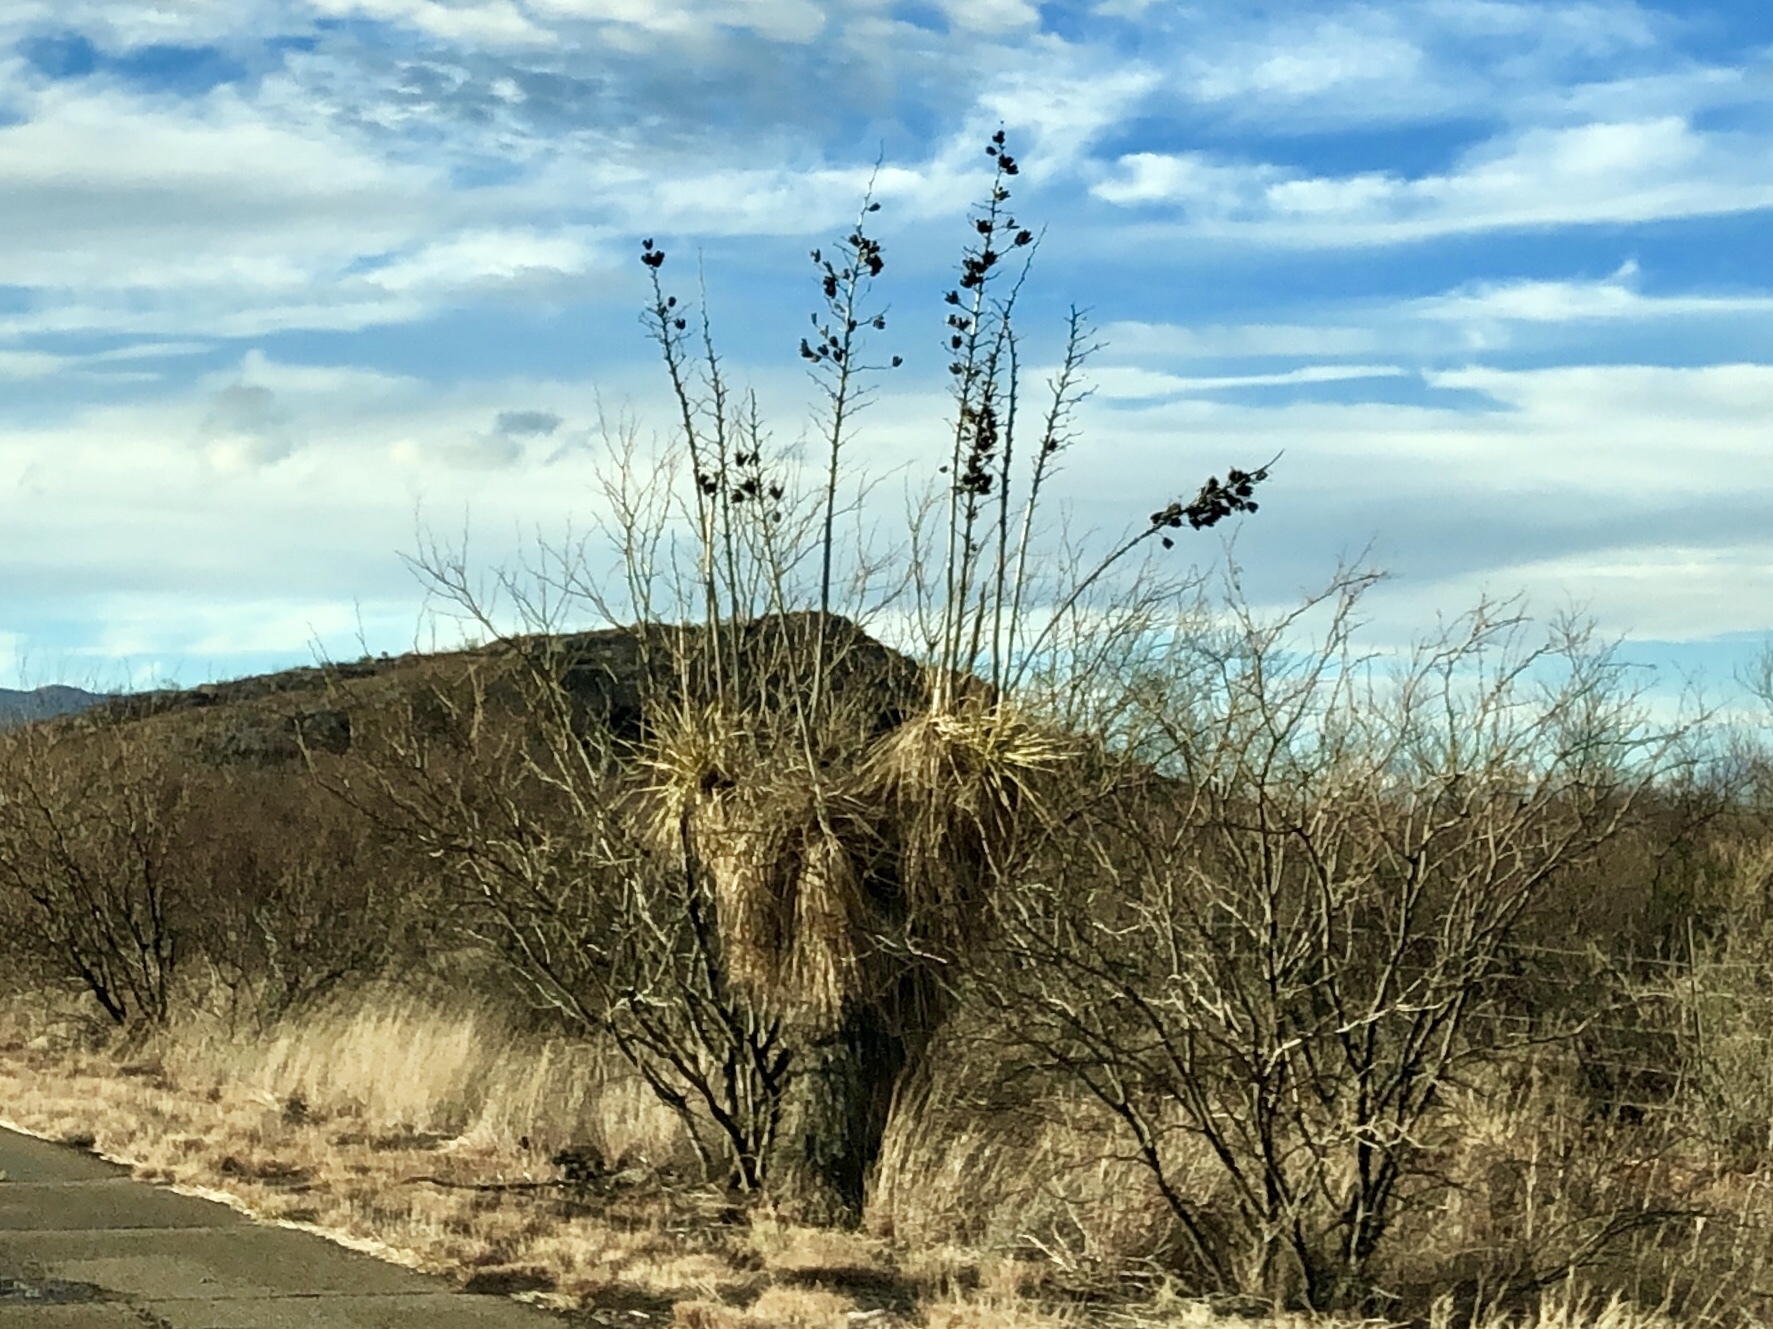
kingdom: Plantae
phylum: Tracheophyta
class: Liliopsida
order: Asparagales
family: Asparagaceae
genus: Yucca
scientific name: Yucca elata
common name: Palmella
